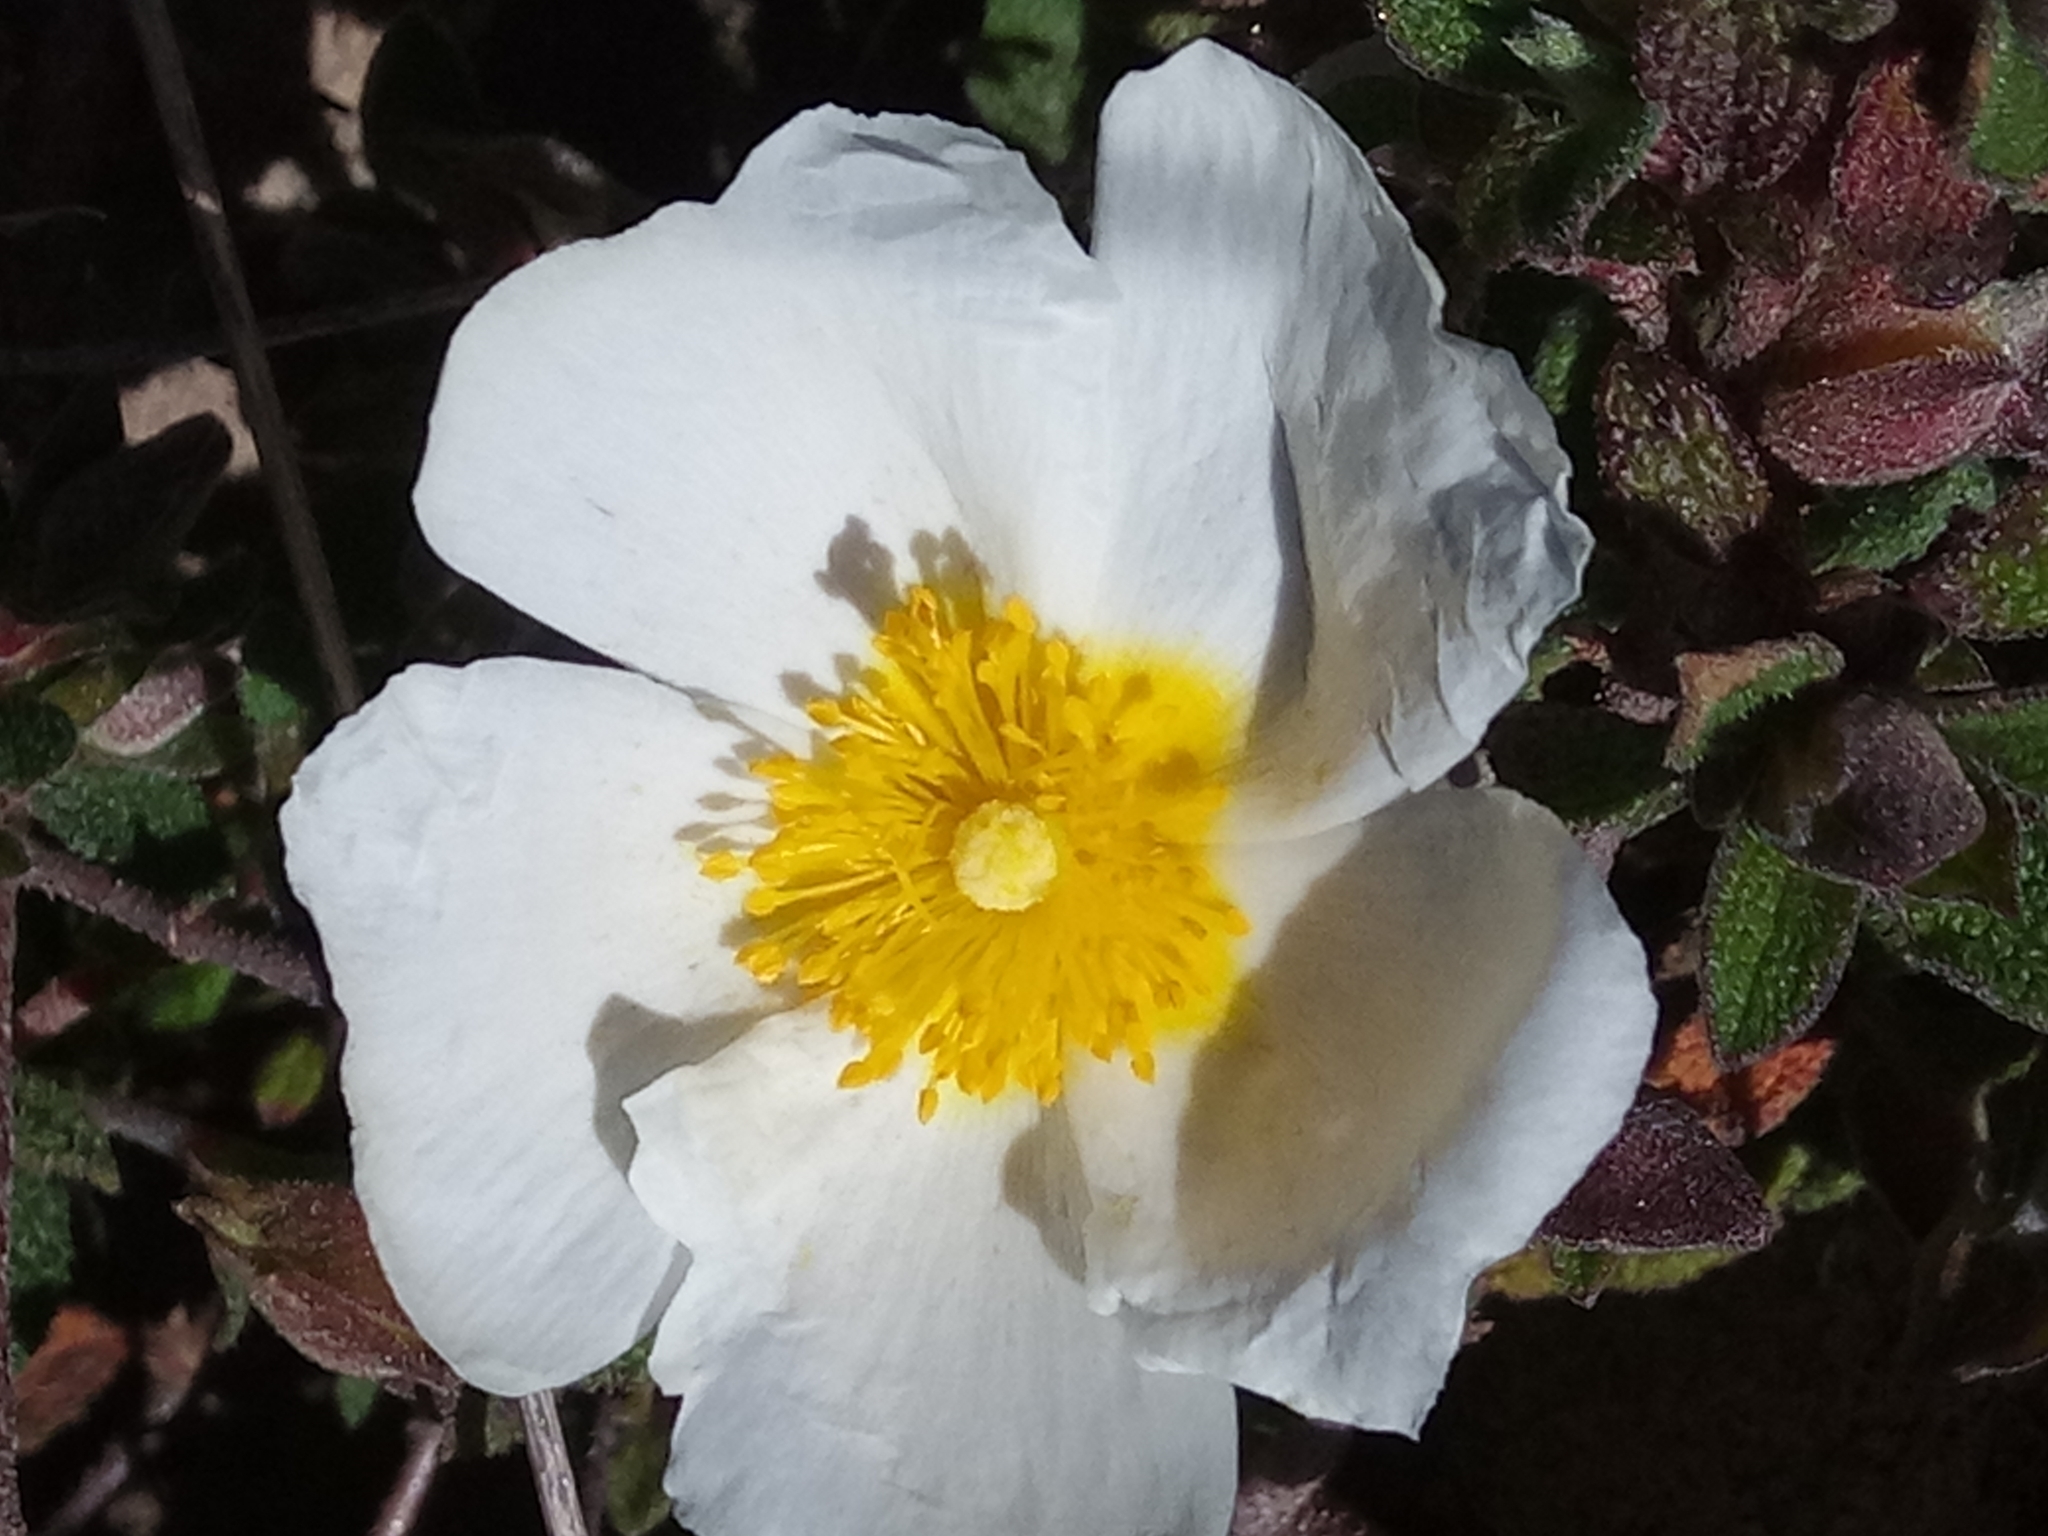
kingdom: Plantae
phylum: Tracheophyta
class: Magnoliopsida
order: Malvales
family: Cistaceae
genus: Cistus
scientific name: Cistus salviifolius
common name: Salvia cistus
